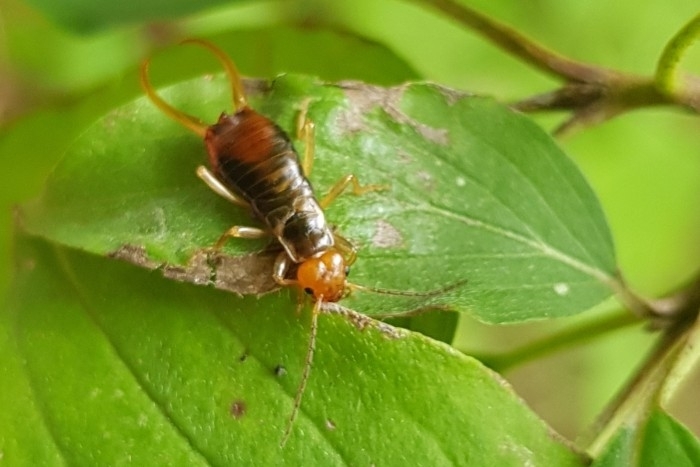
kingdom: Animalia
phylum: Arthropoda
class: Insecta
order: Dermaptera
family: Forficulidae
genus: Chelidurella
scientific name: Chelidurella acanthopygia
